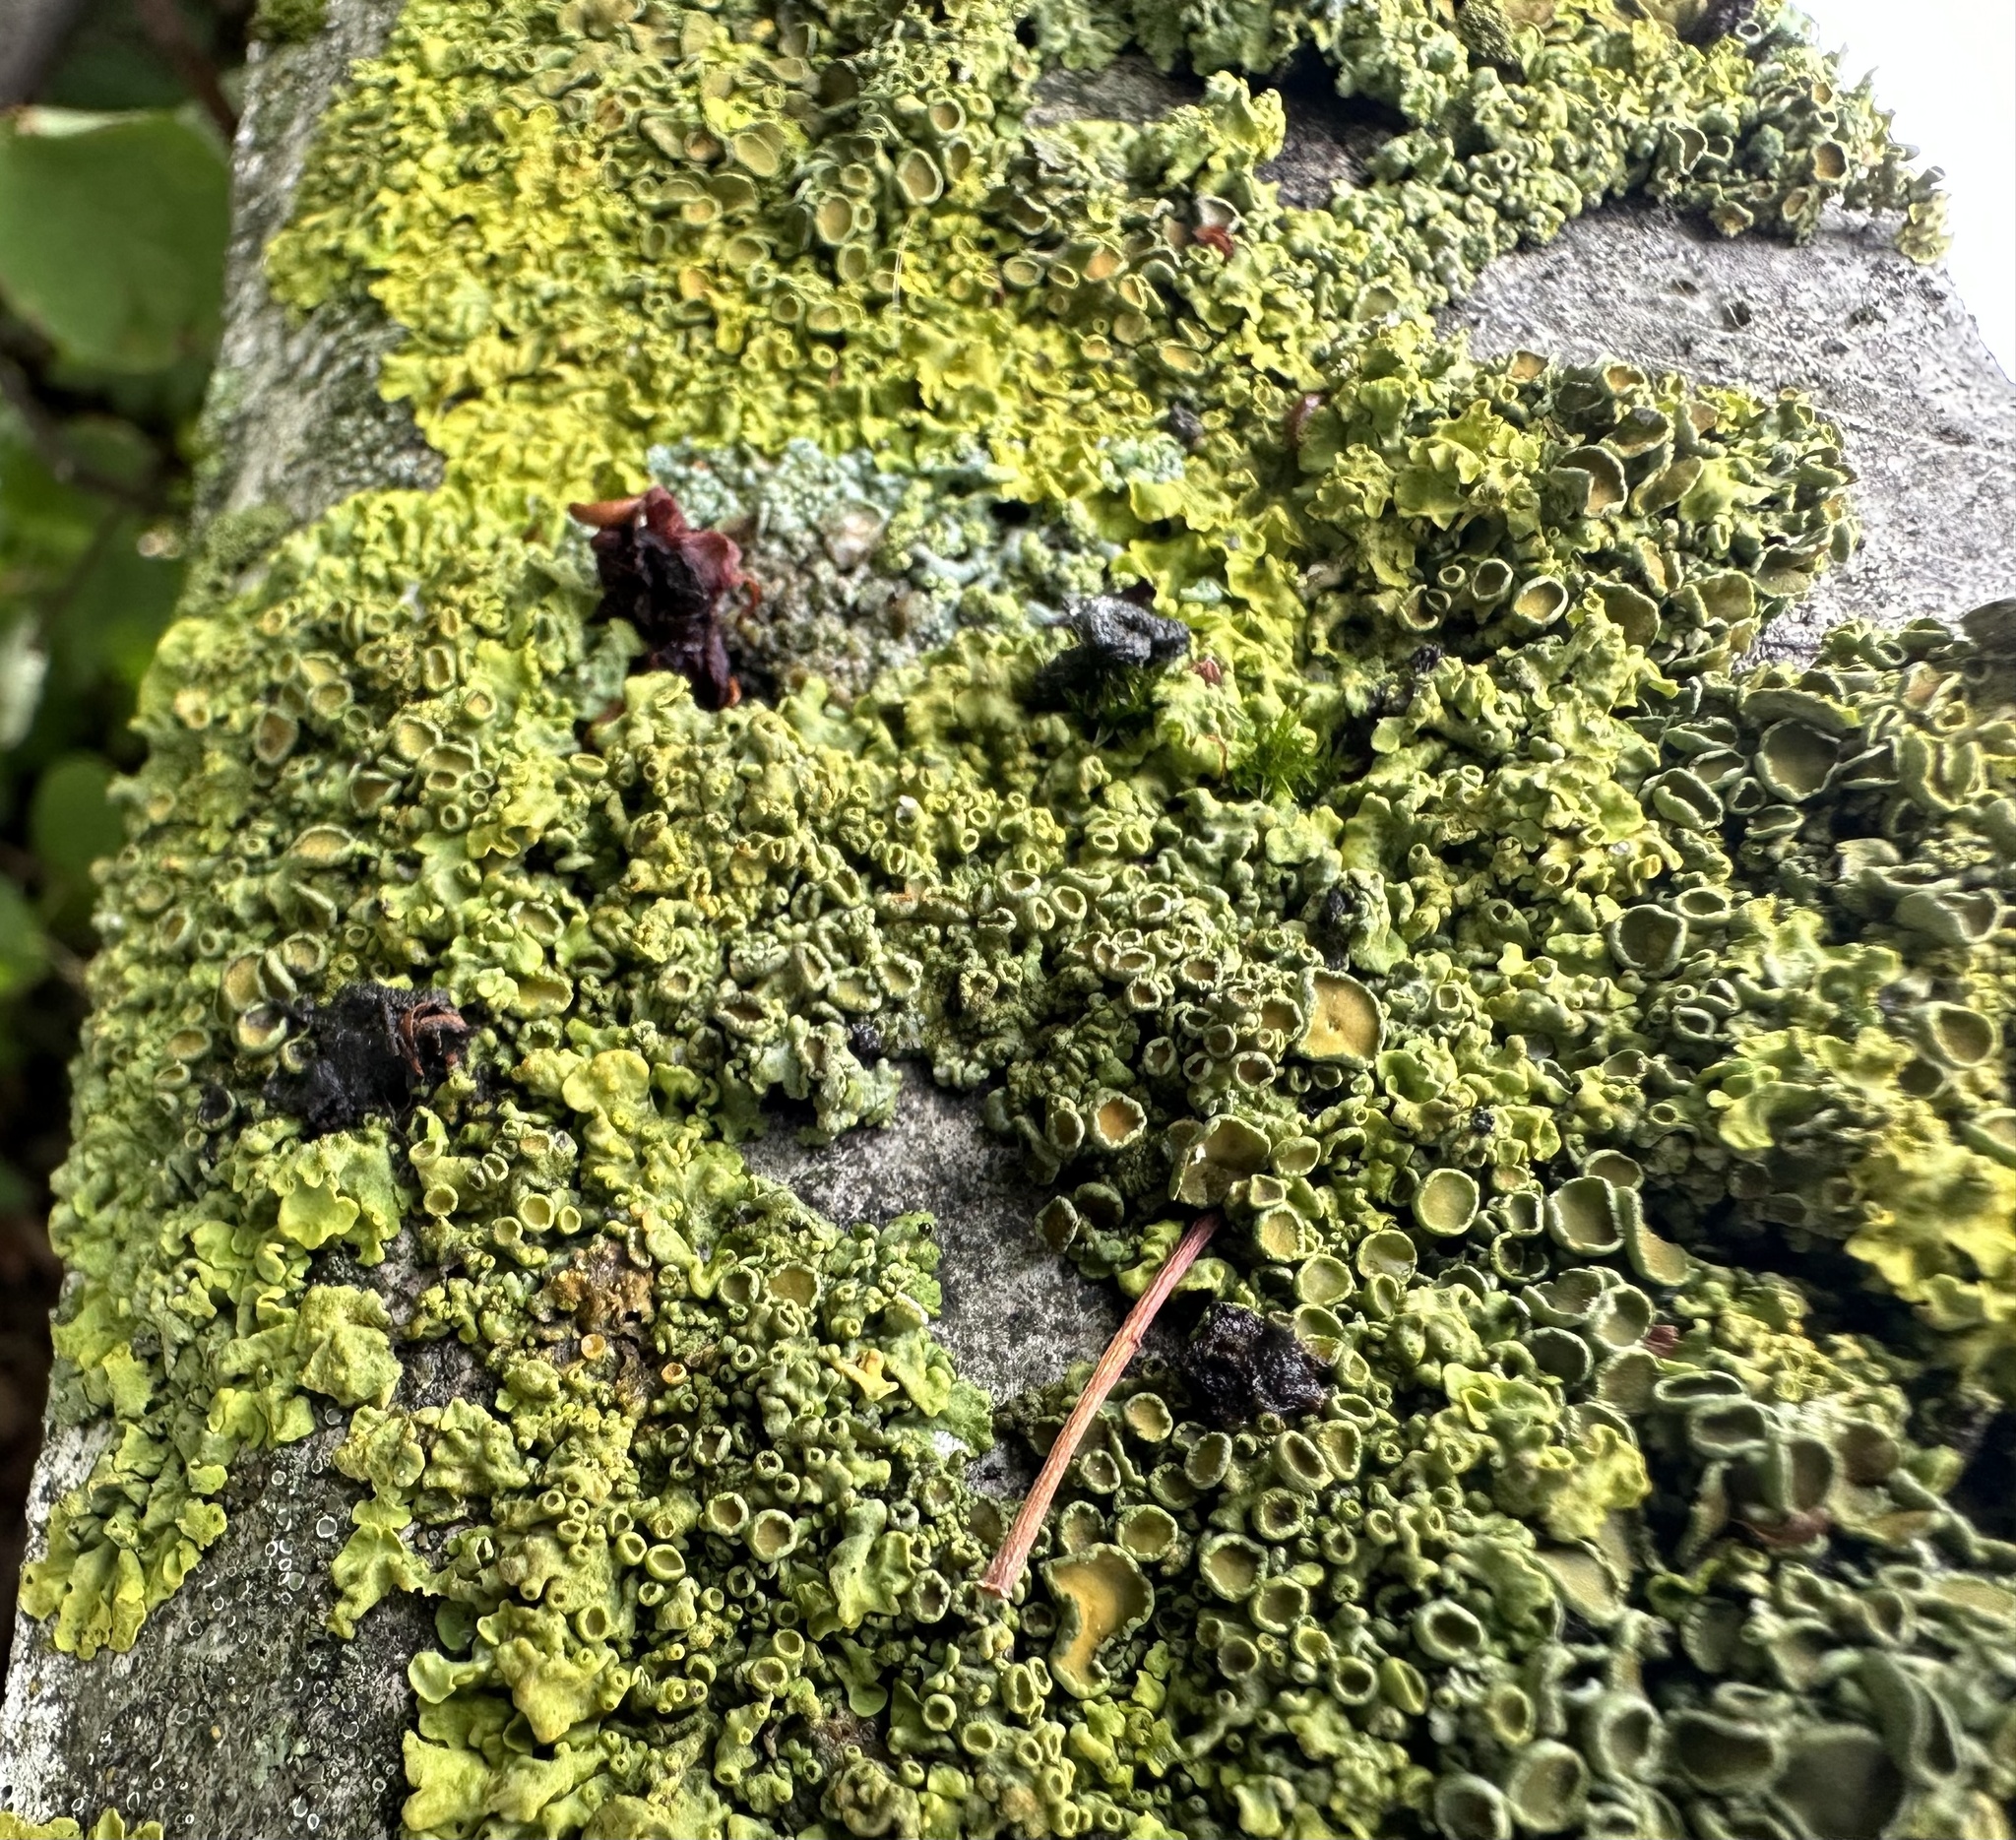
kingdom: Fungi
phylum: Ascomycota
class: Lecanoromycetes
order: Teloschistales
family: Teloschistaceae
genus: Xanthoria
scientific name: Xanthoria parietina
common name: Common orange lichen
